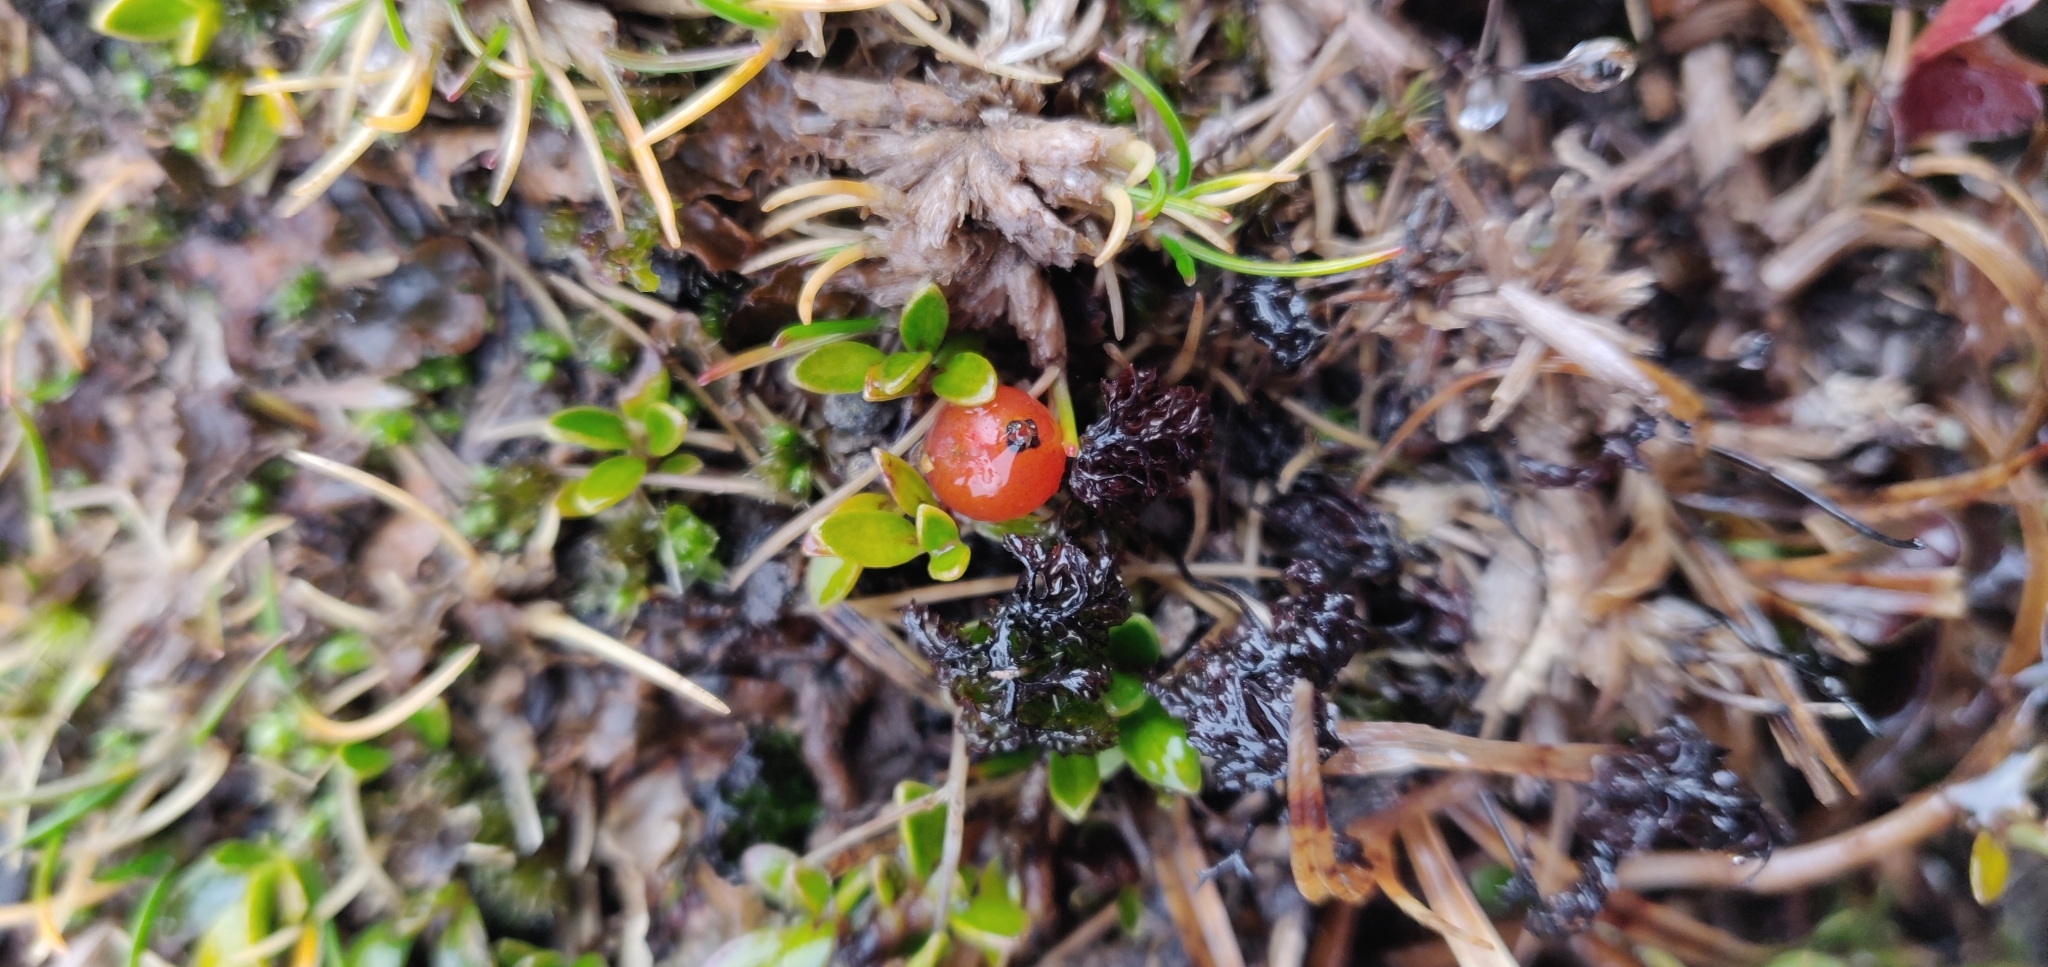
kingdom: Plantae
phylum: Tracheophyta
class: Magnoliopsida
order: Gentianales
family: Rubiaceae
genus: Coprosma
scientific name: Coprosma perpusilla
